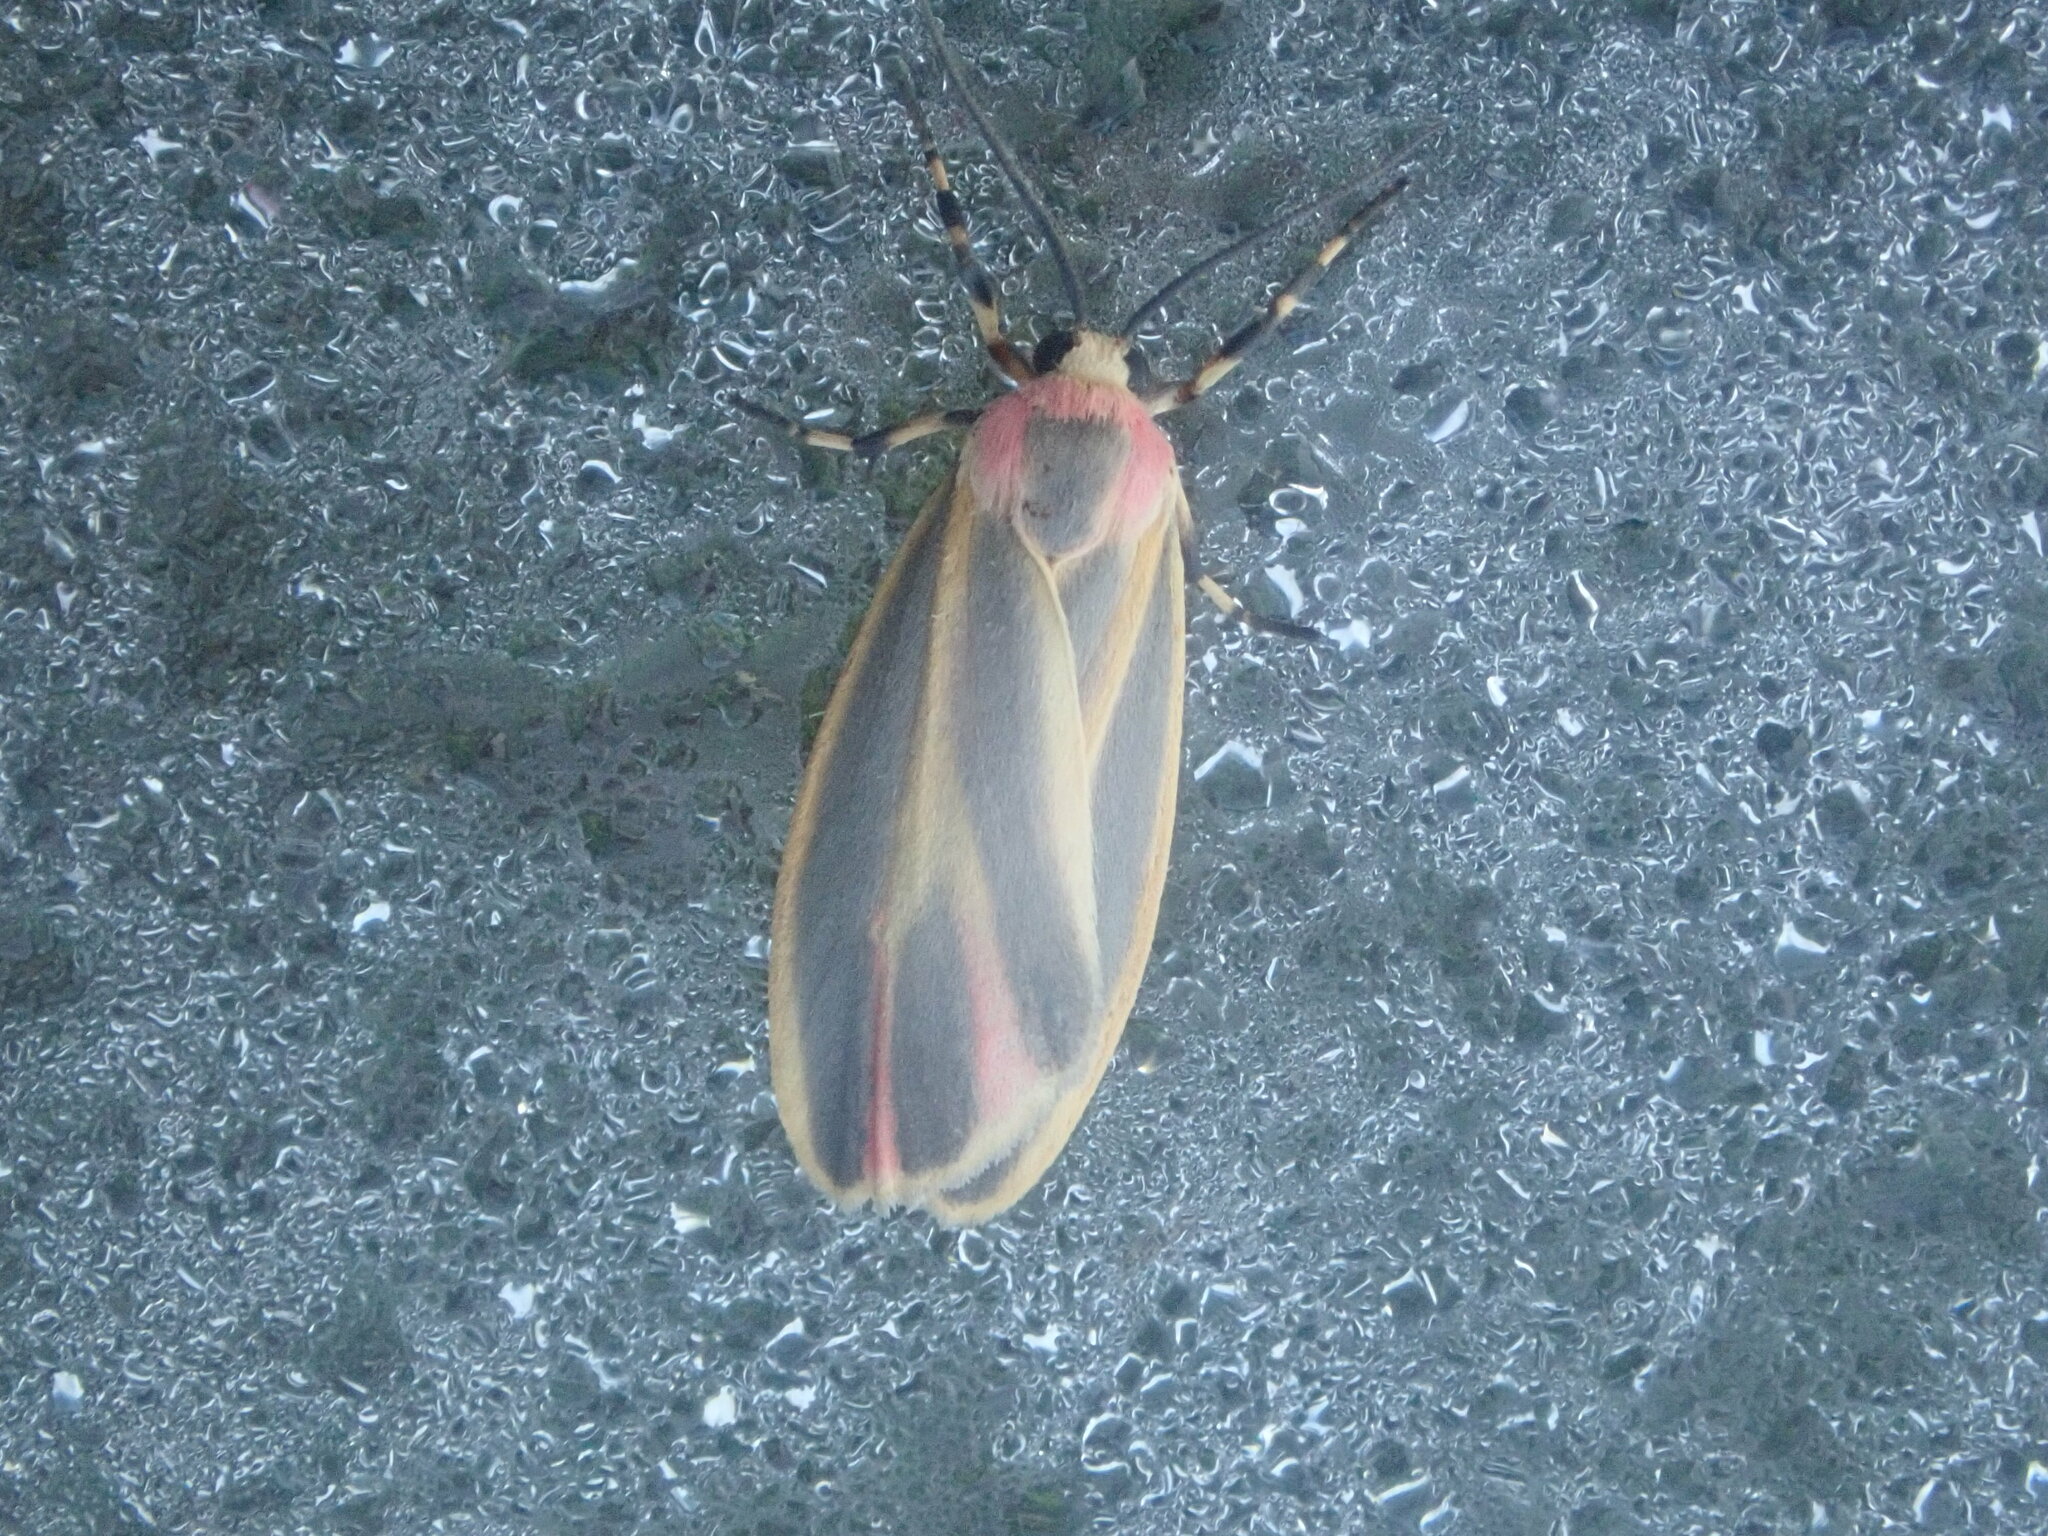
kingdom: Animalia
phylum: Arthropoda
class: Insecta
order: Lepidoptera
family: Erebidae
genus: Hypoprepia
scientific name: Hypoprepia fucosa
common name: Painted lichen moth
